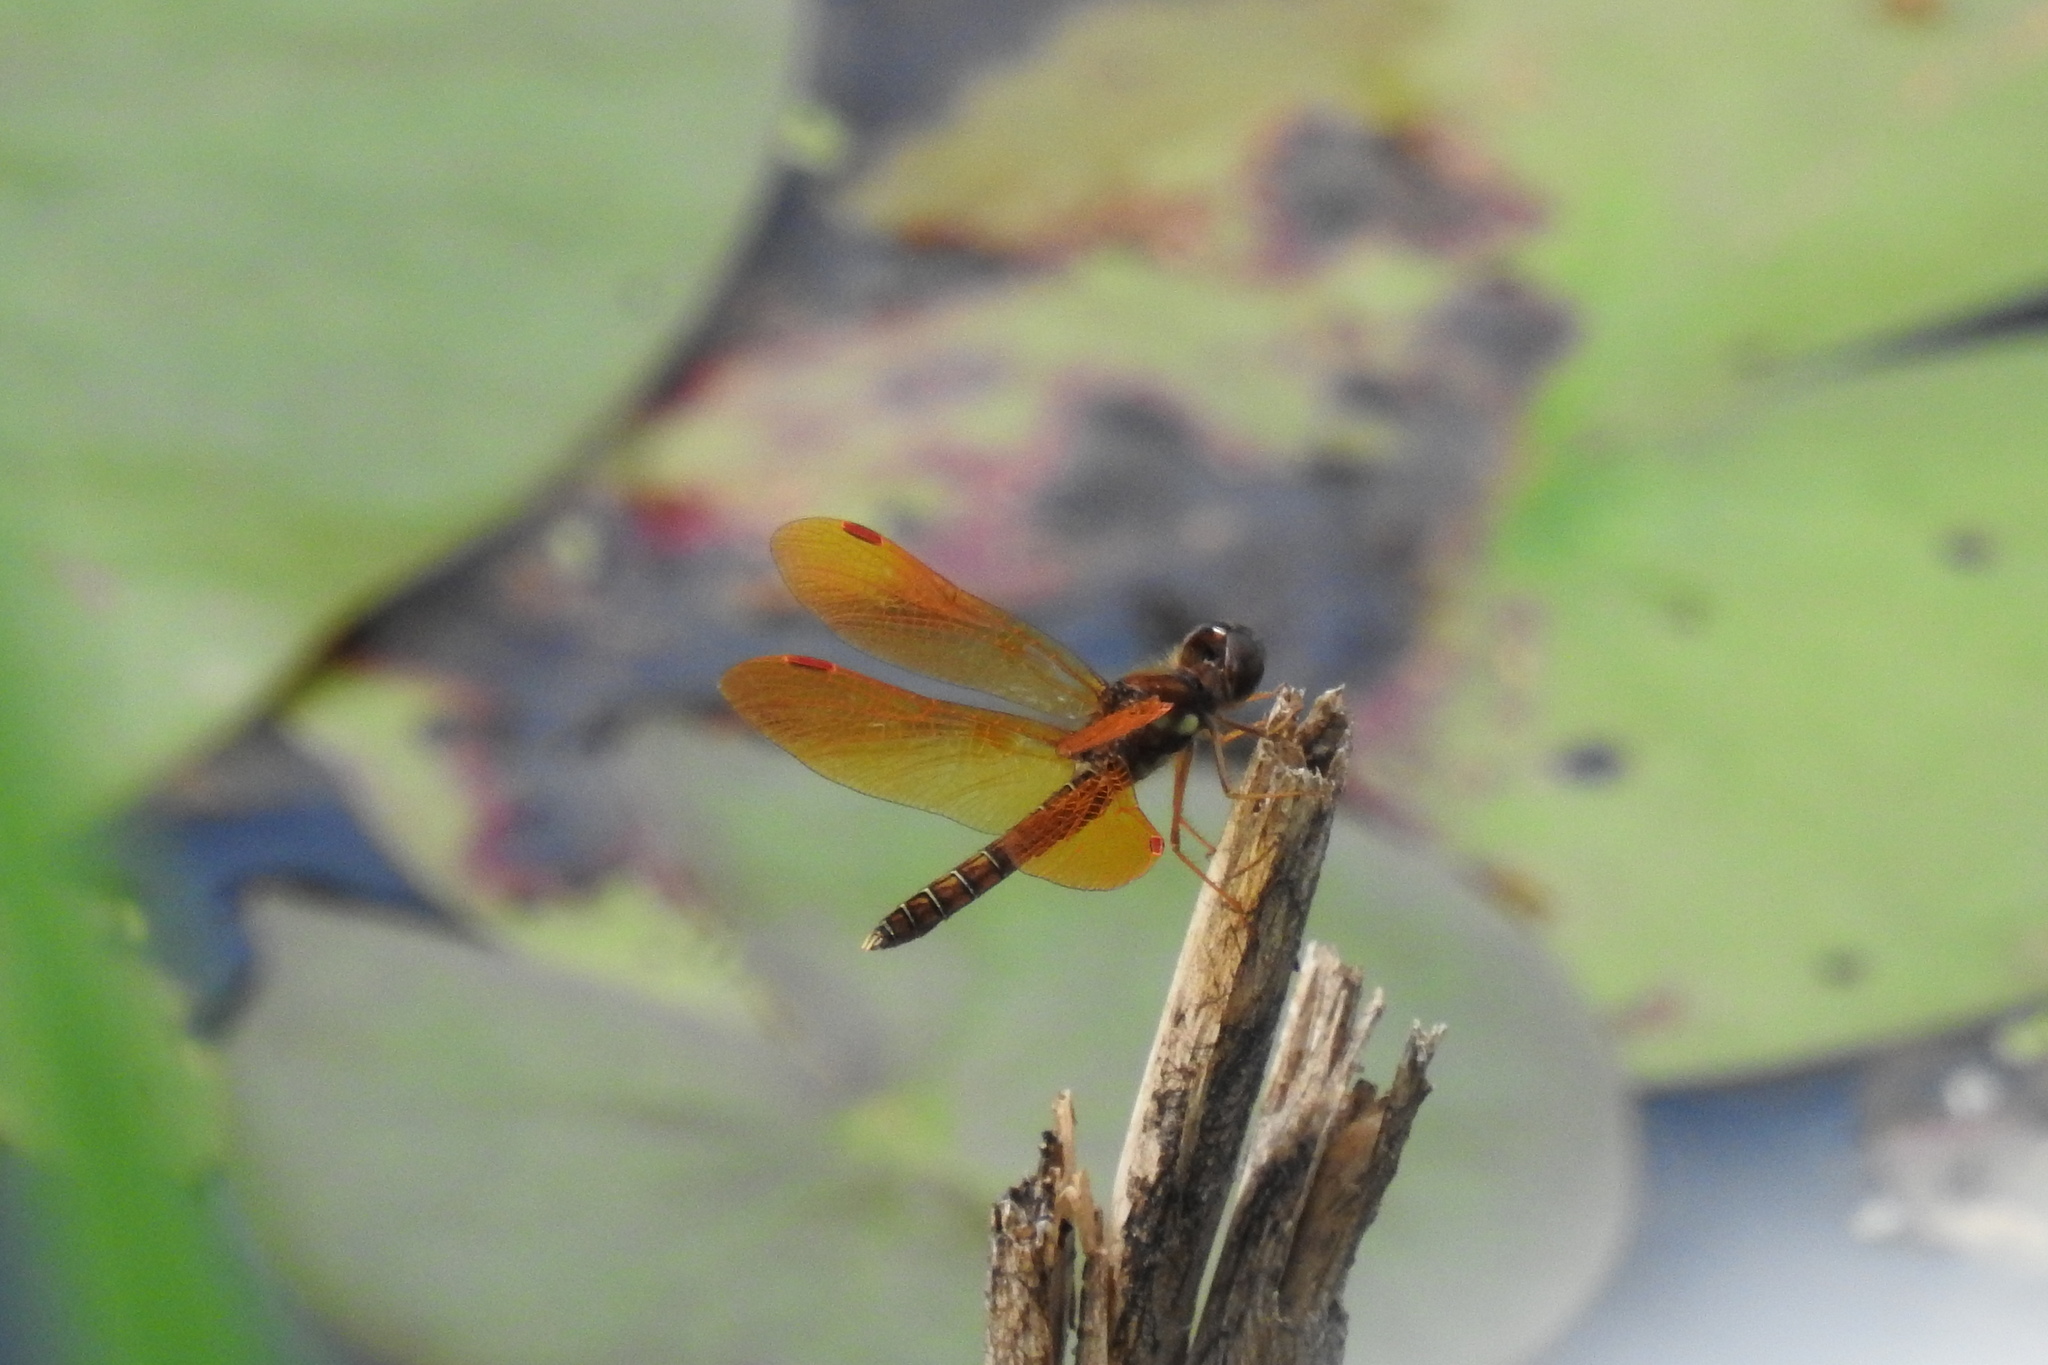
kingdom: Animalia
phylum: Arthropoda
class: Insecta
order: Odonata
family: Libellulidae
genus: Perithemis
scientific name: Perithemis tenera
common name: Eastern amberwing
